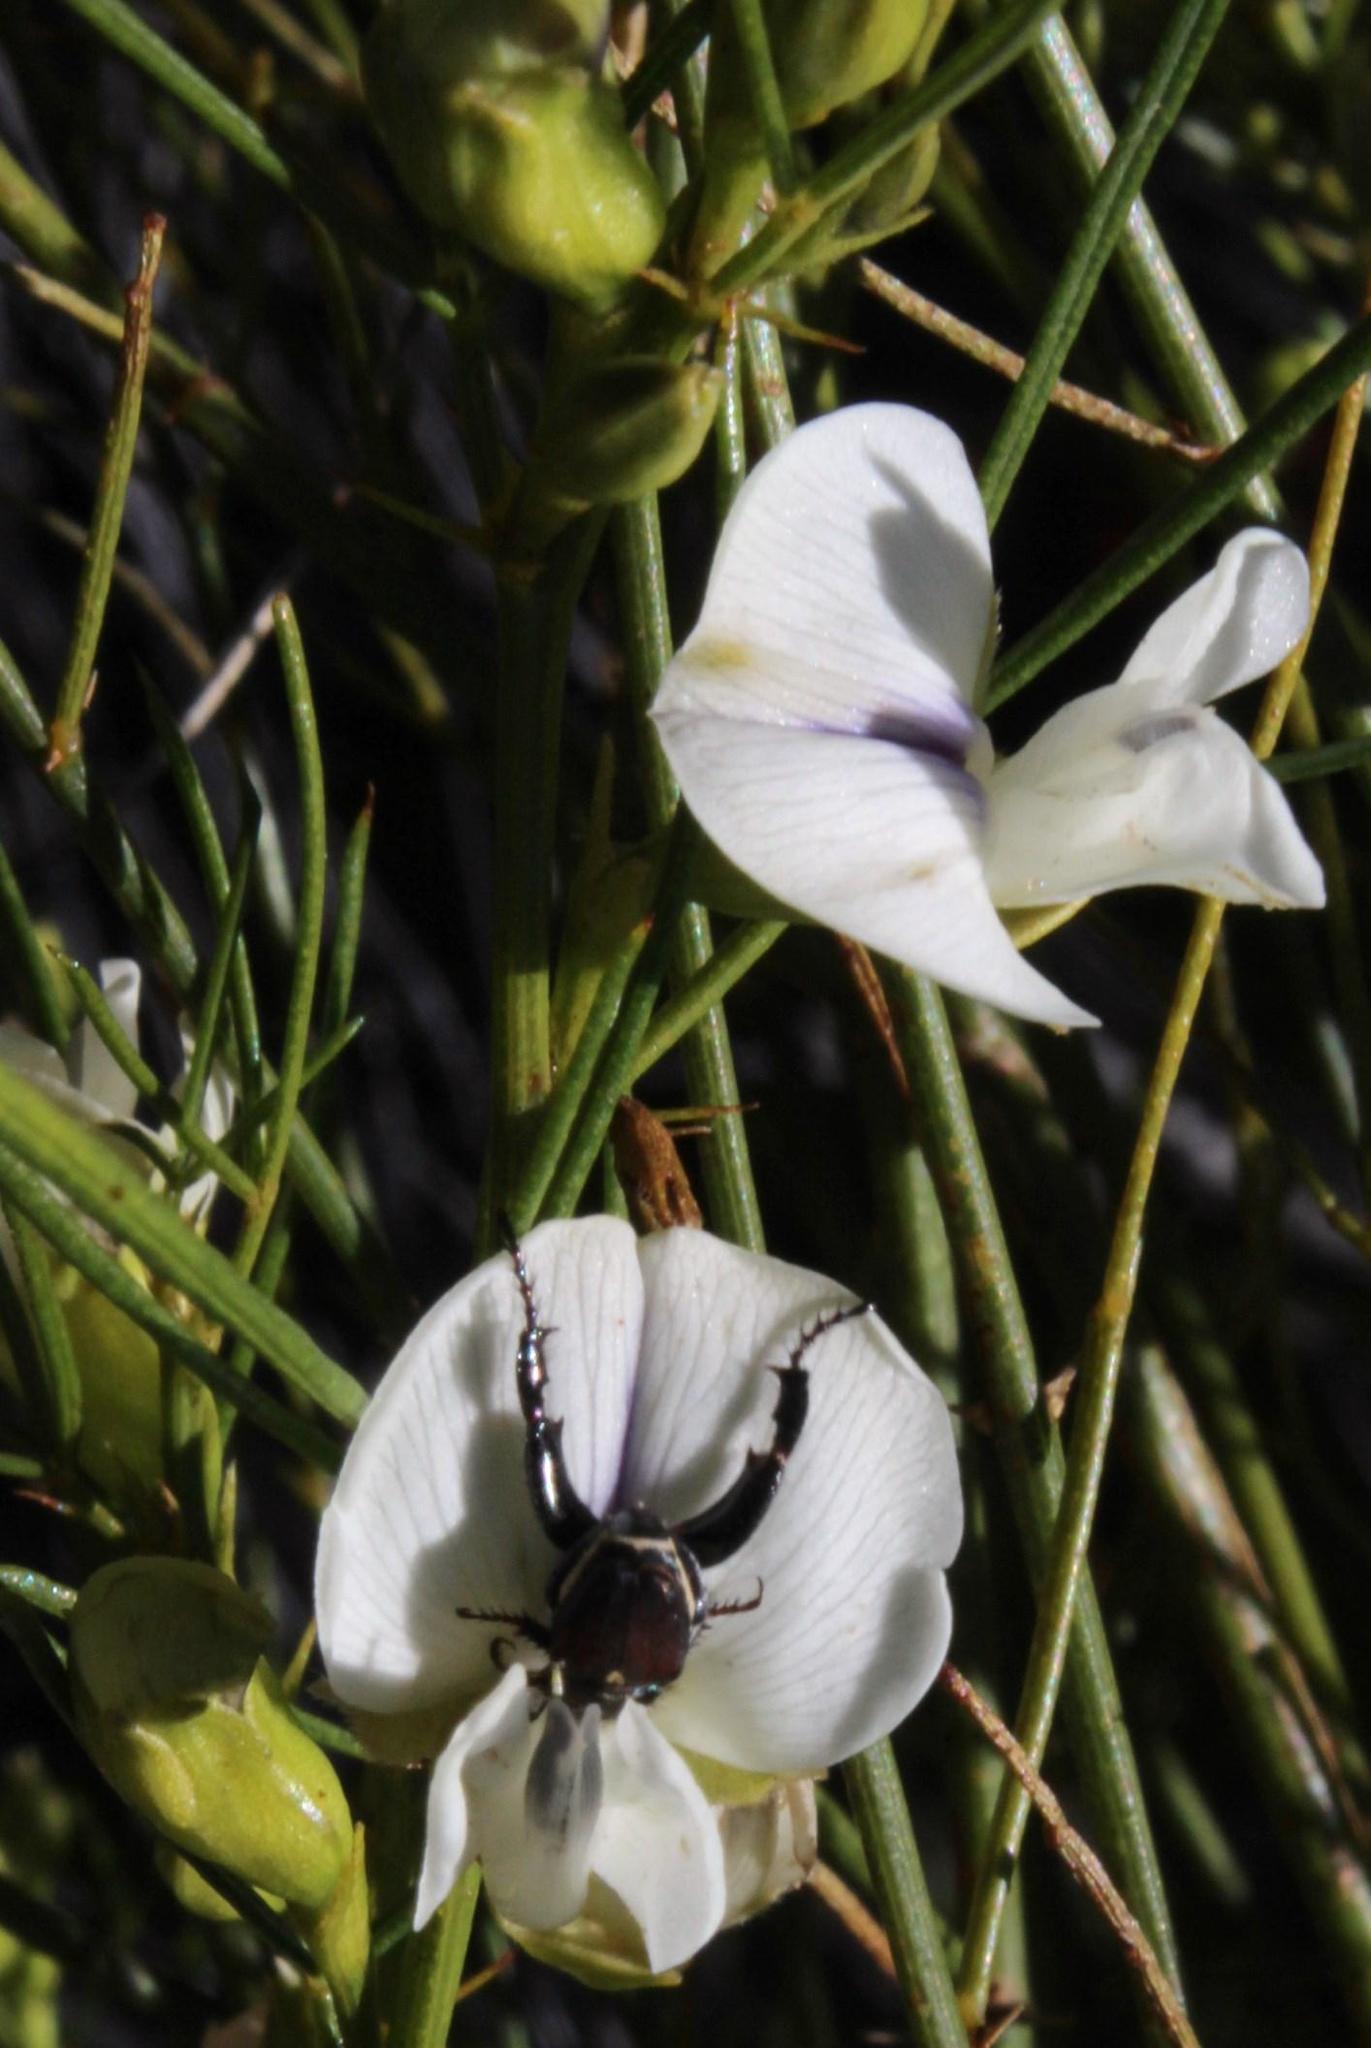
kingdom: Plantae
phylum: Tracheophyta
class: Magnoliopsida
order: Fabales
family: Fabaceae
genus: Psoralea
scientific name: Psoralea
